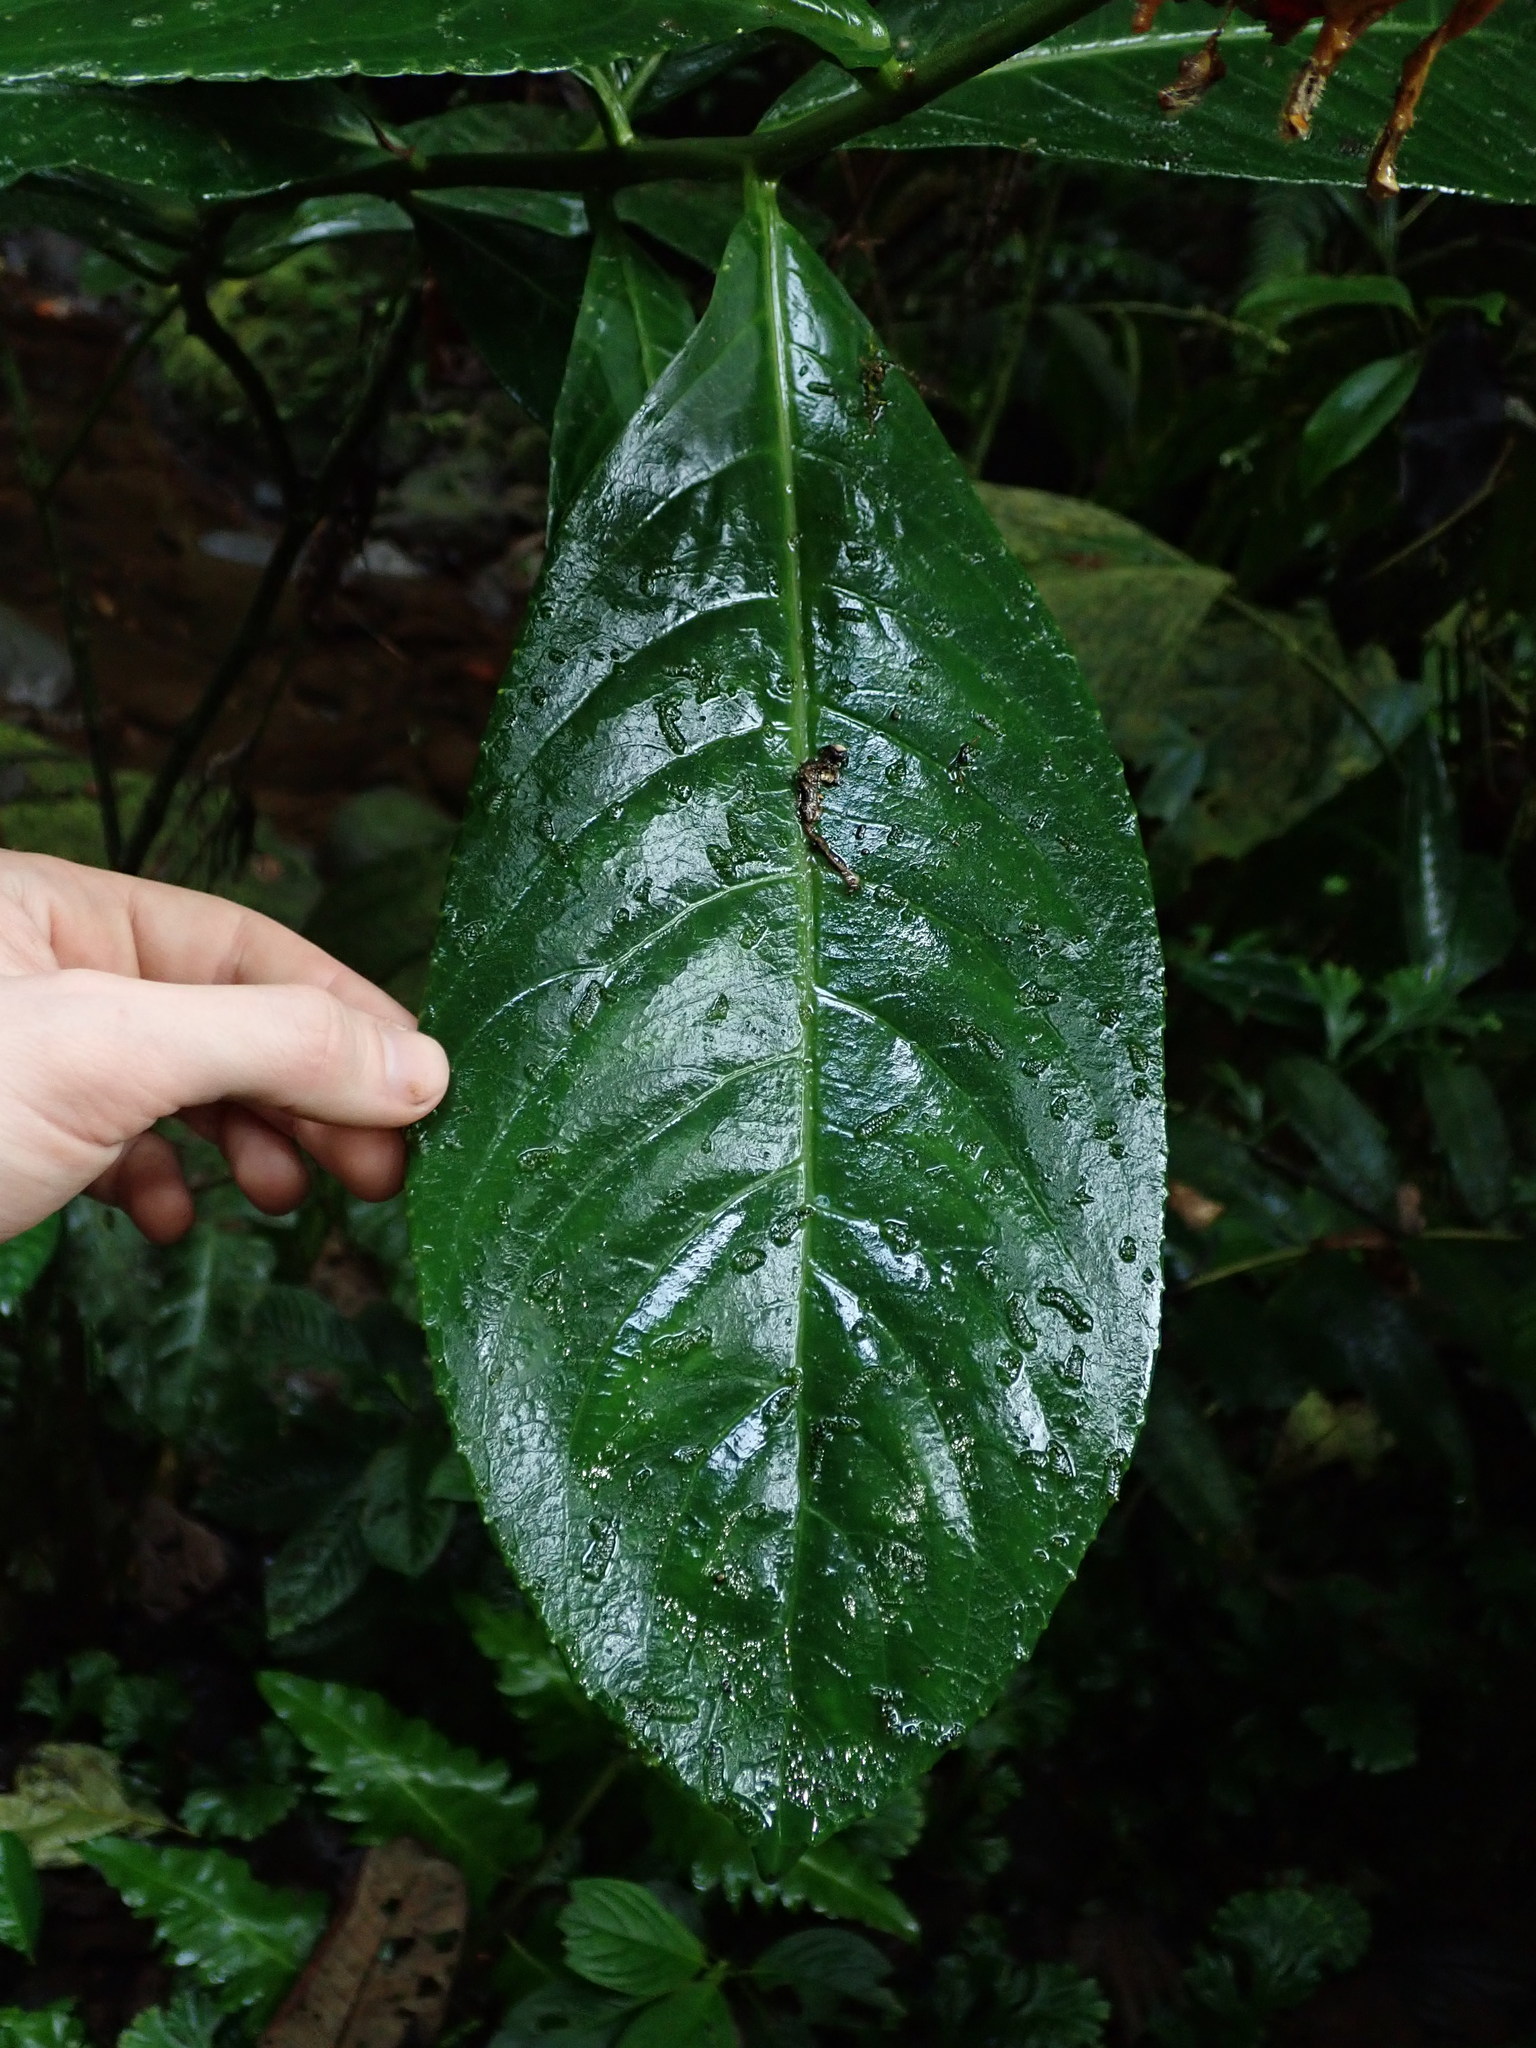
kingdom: Plantae
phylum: Tracheophyta
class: Magnoliopsida
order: Asterales
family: Campanulaceae
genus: Centropogon
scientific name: Centropogon granulosus
